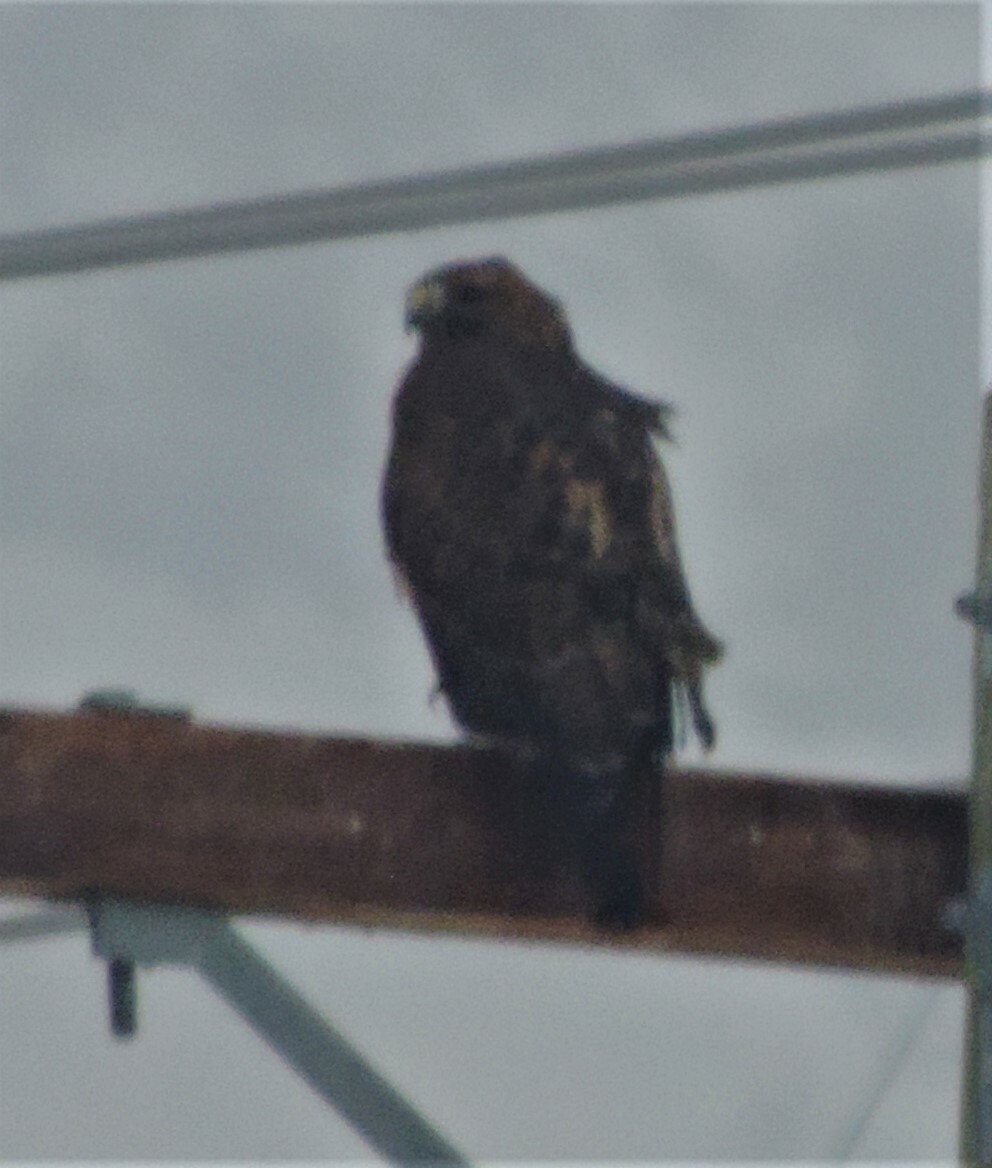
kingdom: Animalia
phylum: Chordata
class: Aves
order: Accipitriformes
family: Accipitridae
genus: Buteo
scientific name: Buteo jamaicensis
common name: Red-tailed hawk
